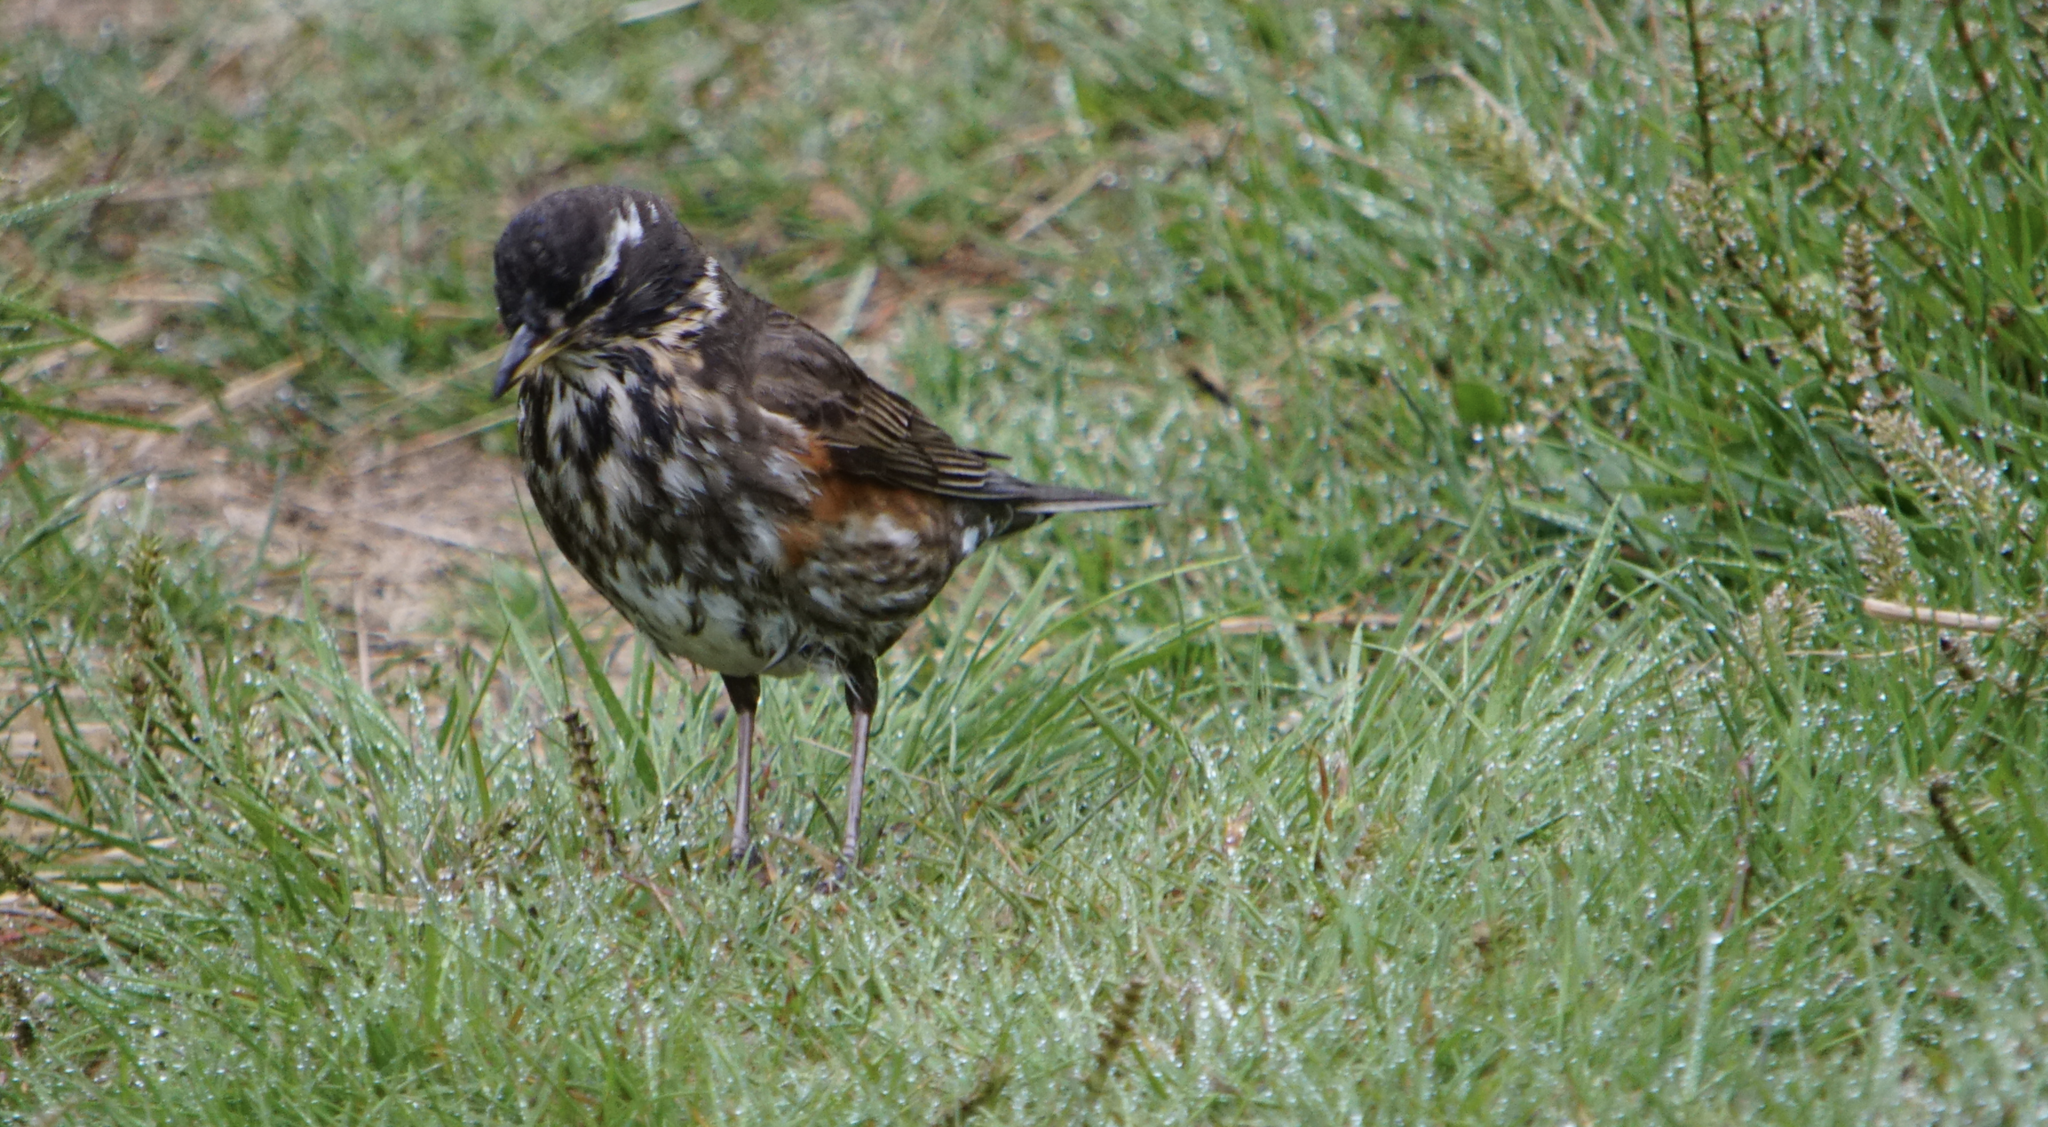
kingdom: Animalia
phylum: Chordata
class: Aves
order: Passeriformes
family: Turdidae
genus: Turdus
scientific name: Turdus iliacus
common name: Redwing
